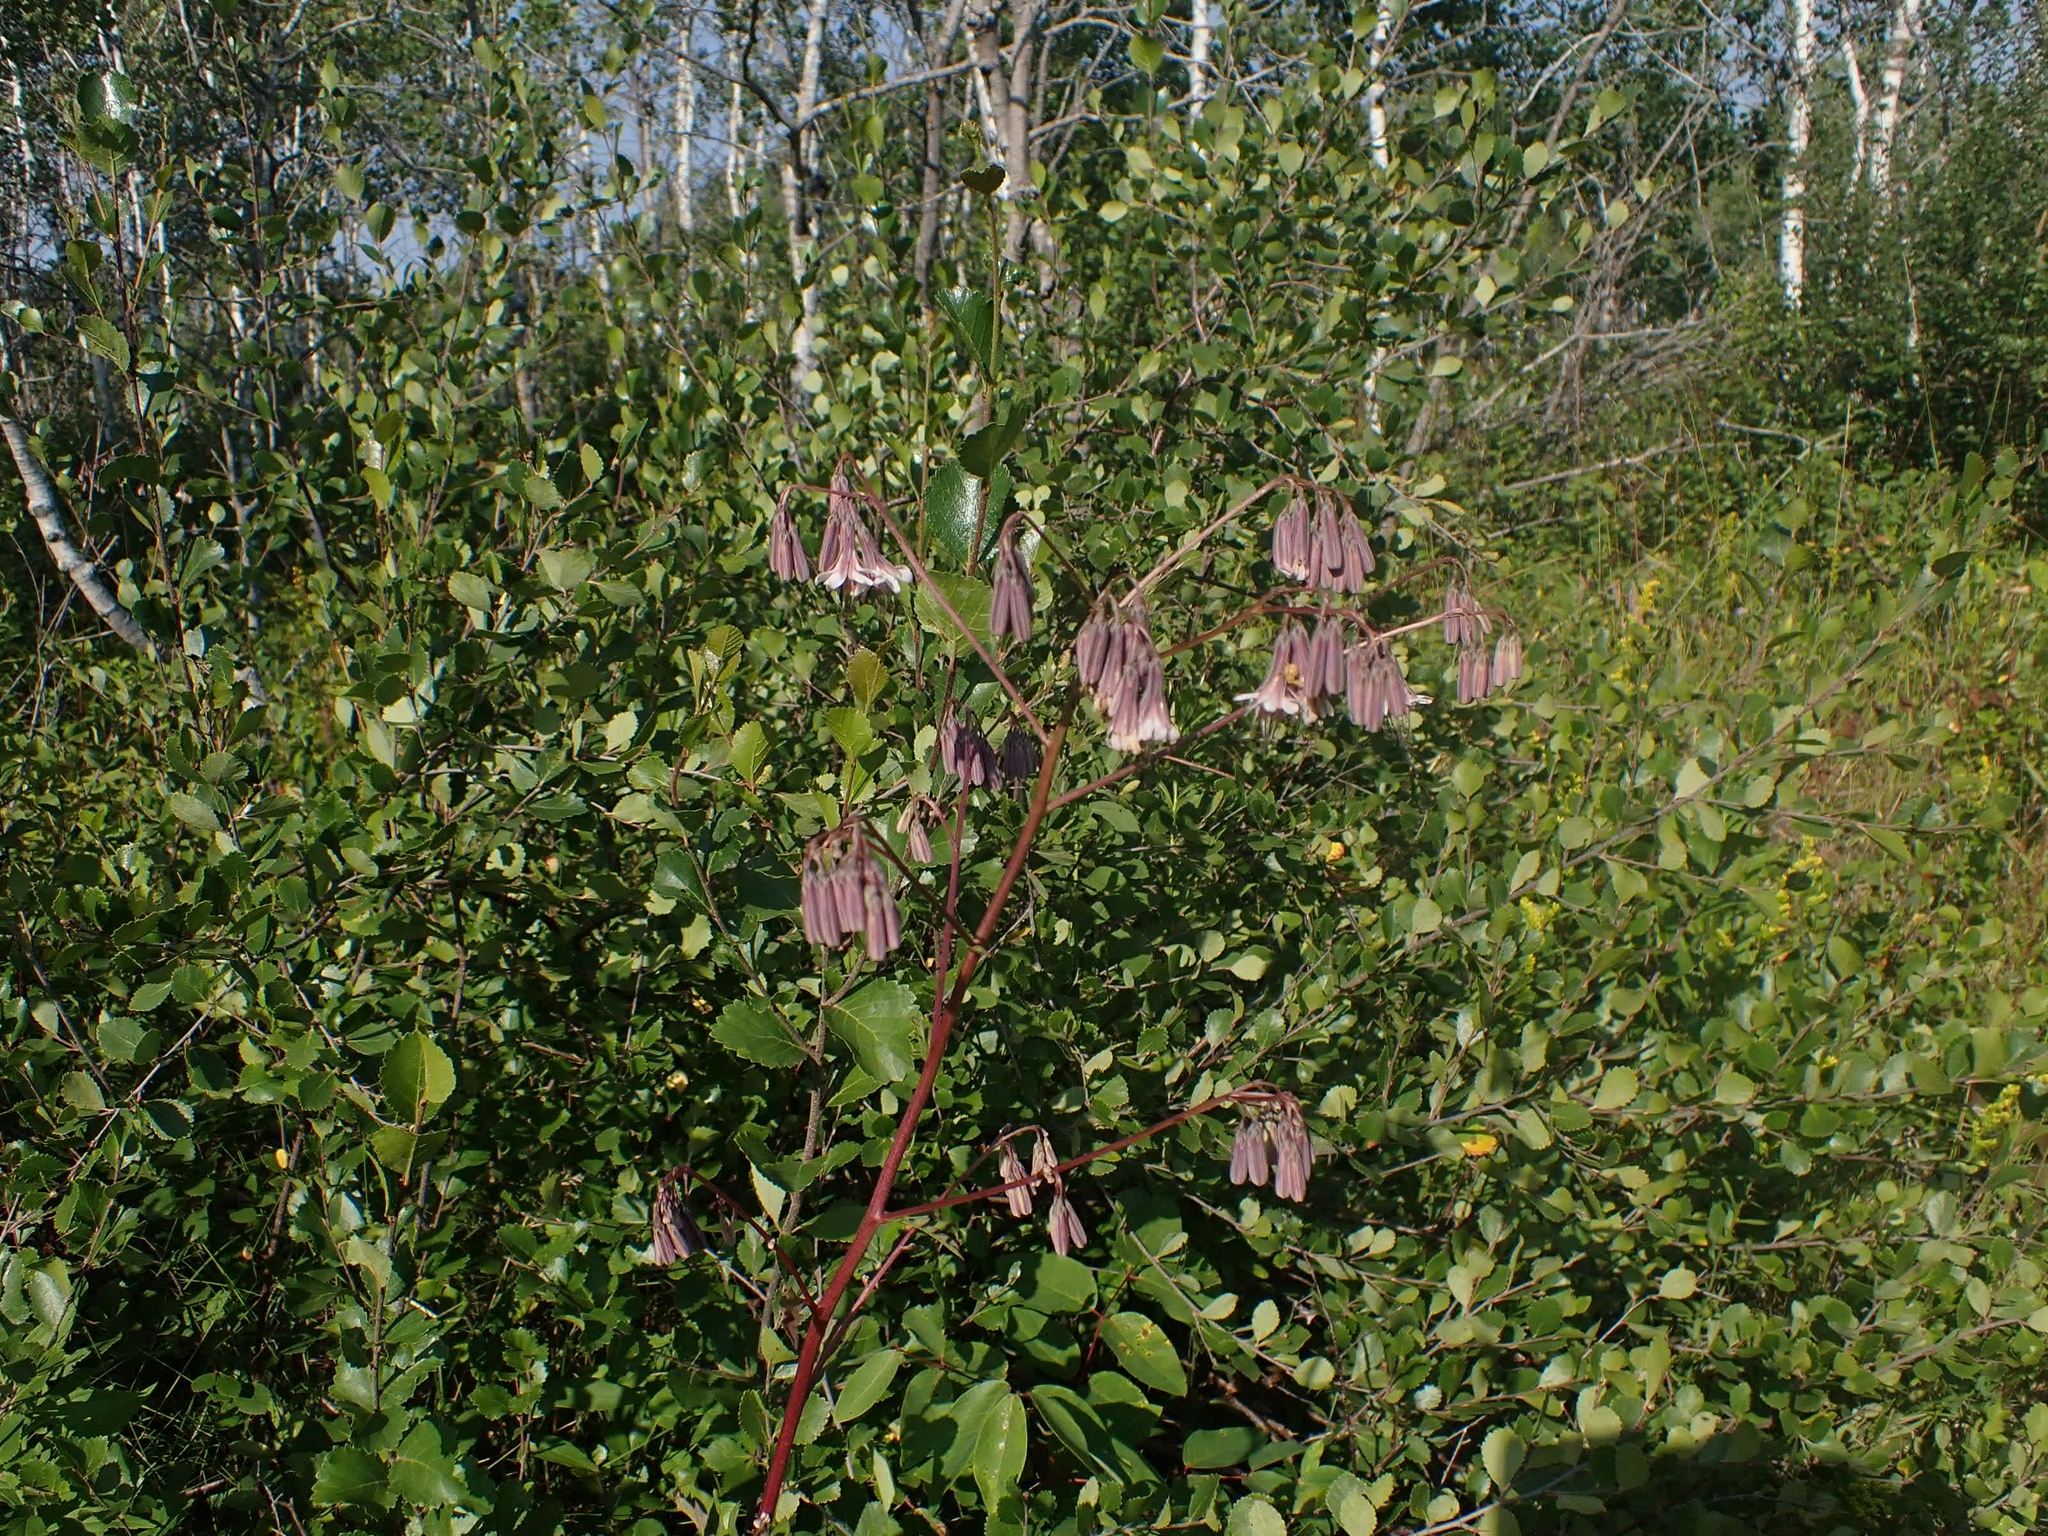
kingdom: Plantae
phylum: Tracheophyta
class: Magnoliopsida
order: Asterales
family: Asteraceae
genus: Nabalus
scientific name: Nabalus albus
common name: White rattlesnakeroot
